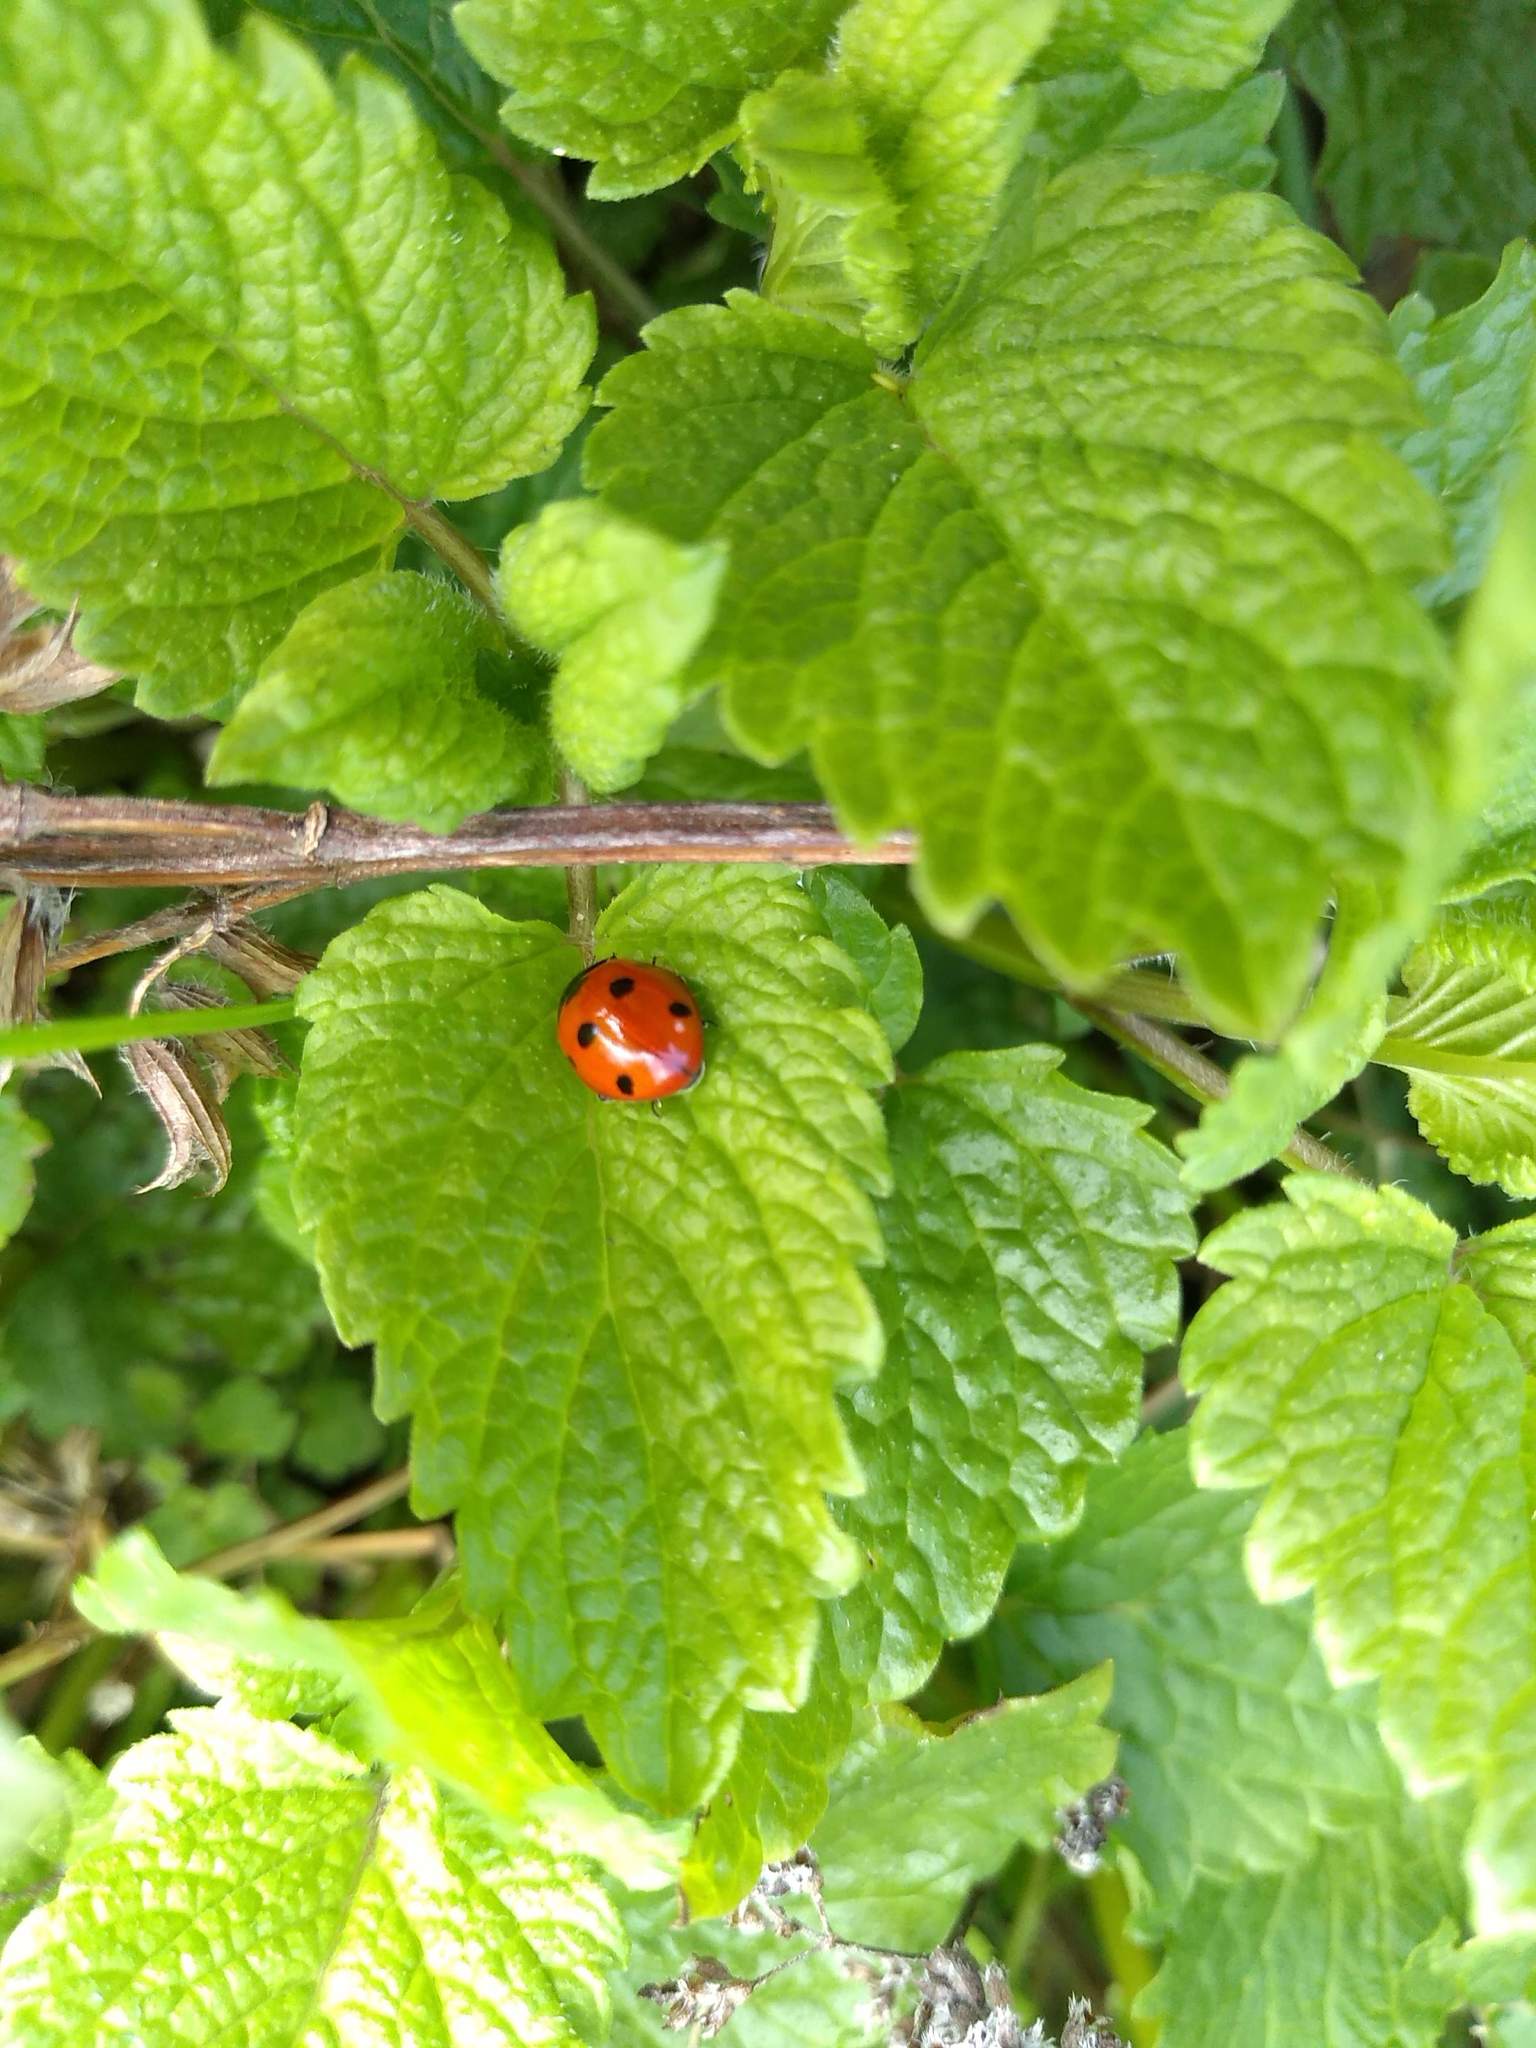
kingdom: Animalia
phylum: Arthropoda
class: Insecta
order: Coleoptera
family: Coccinellidae
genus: Coccinella
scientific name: Coccinella septempunctata
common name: Sevenspotted lady beetle
